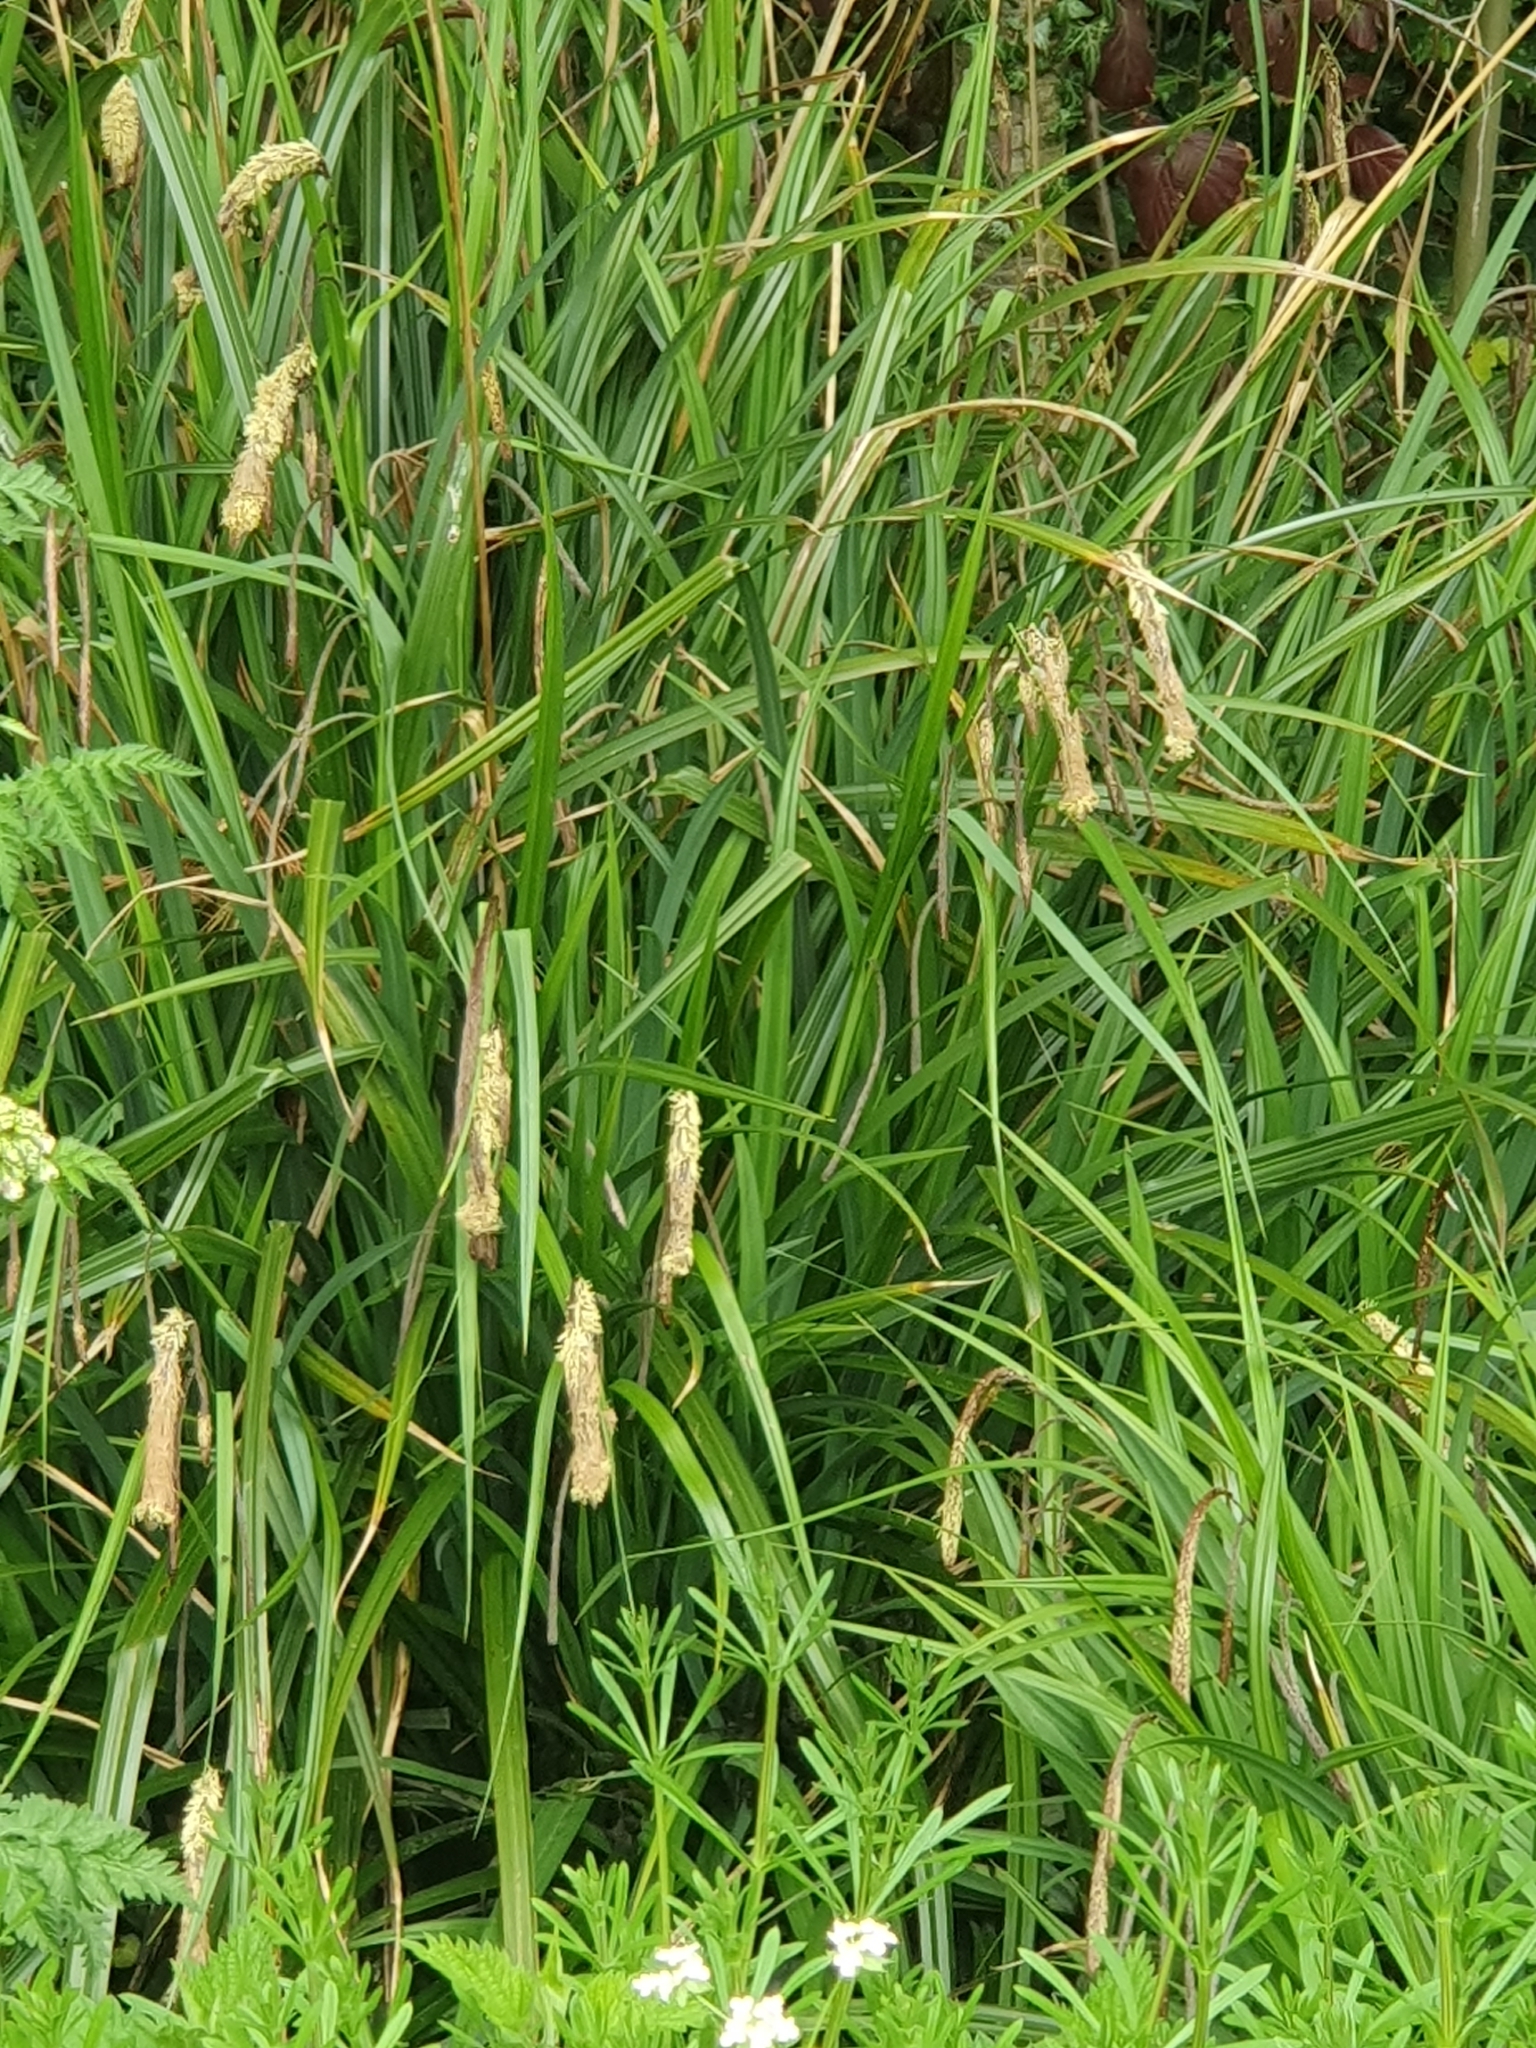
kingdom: Plantae
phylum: Tracheophyta
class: Liliopsida
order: Poales
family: Cyperaceae
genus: Carex
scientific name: Carex pendula
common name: Pendulous sedge
